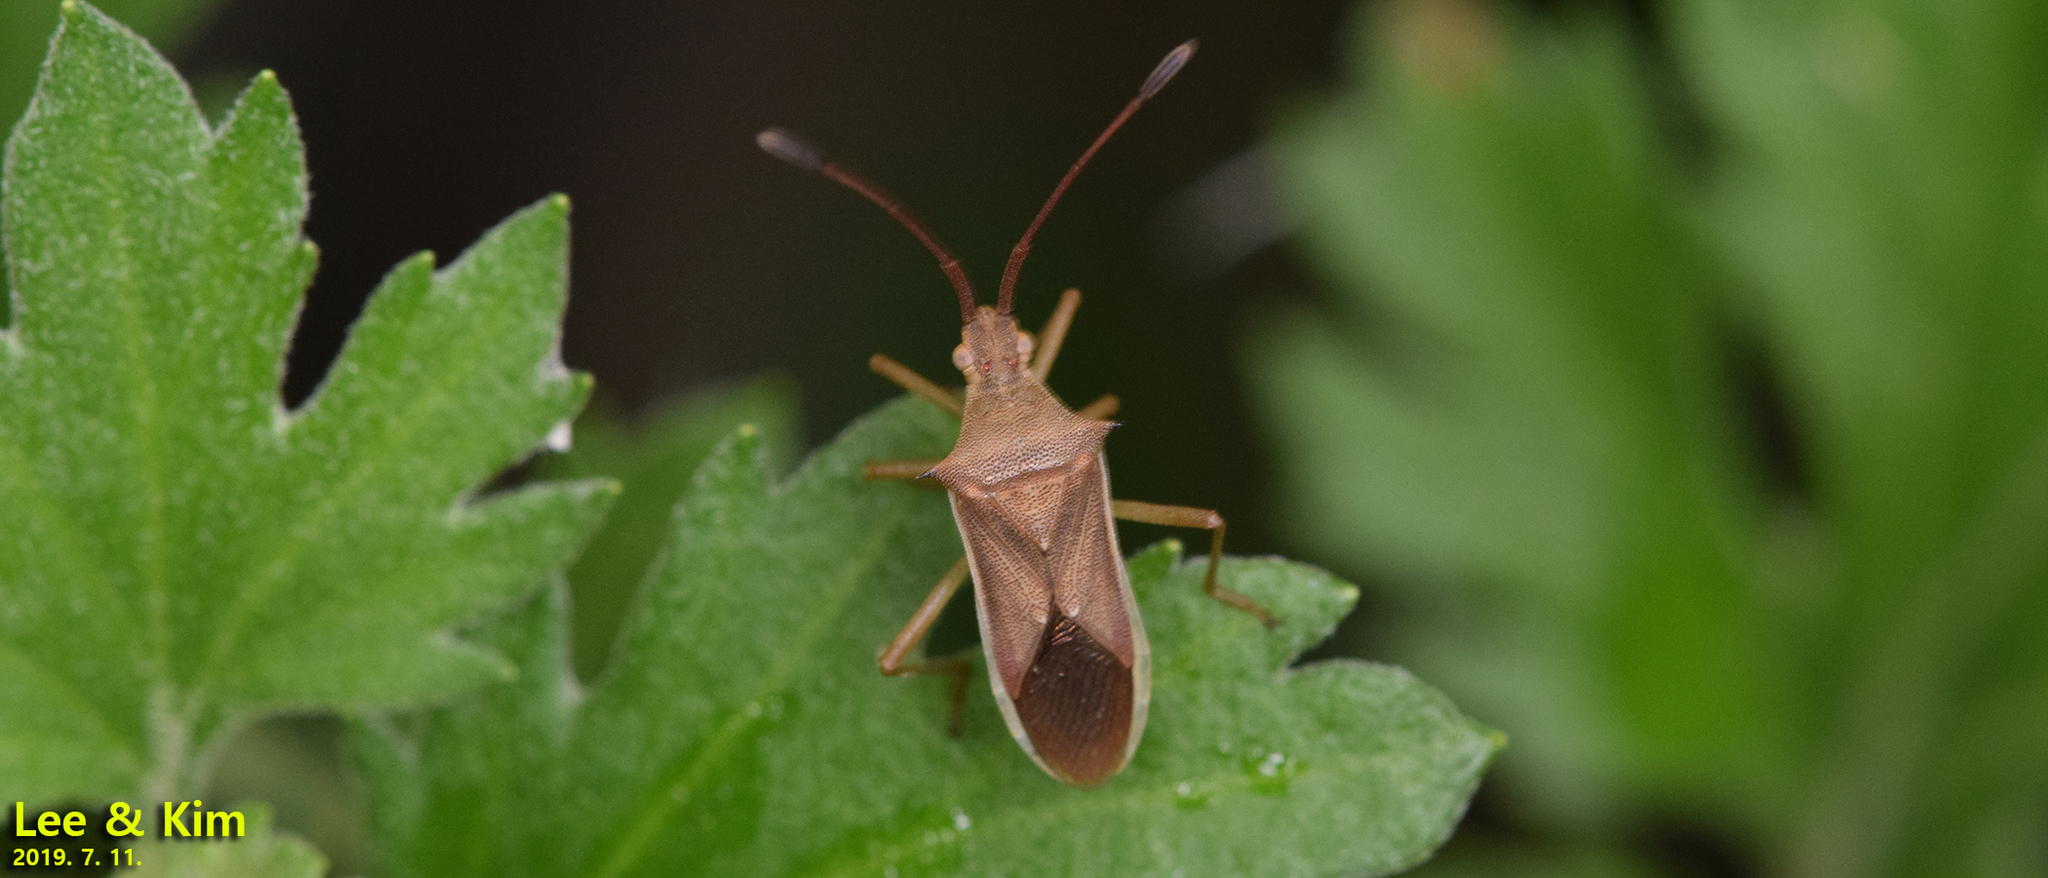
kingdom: Animalia
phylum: Arthropoda
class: Insecta
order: Hemiptera
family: Coreidae
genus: Cletus
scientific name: Cletus punctiger
